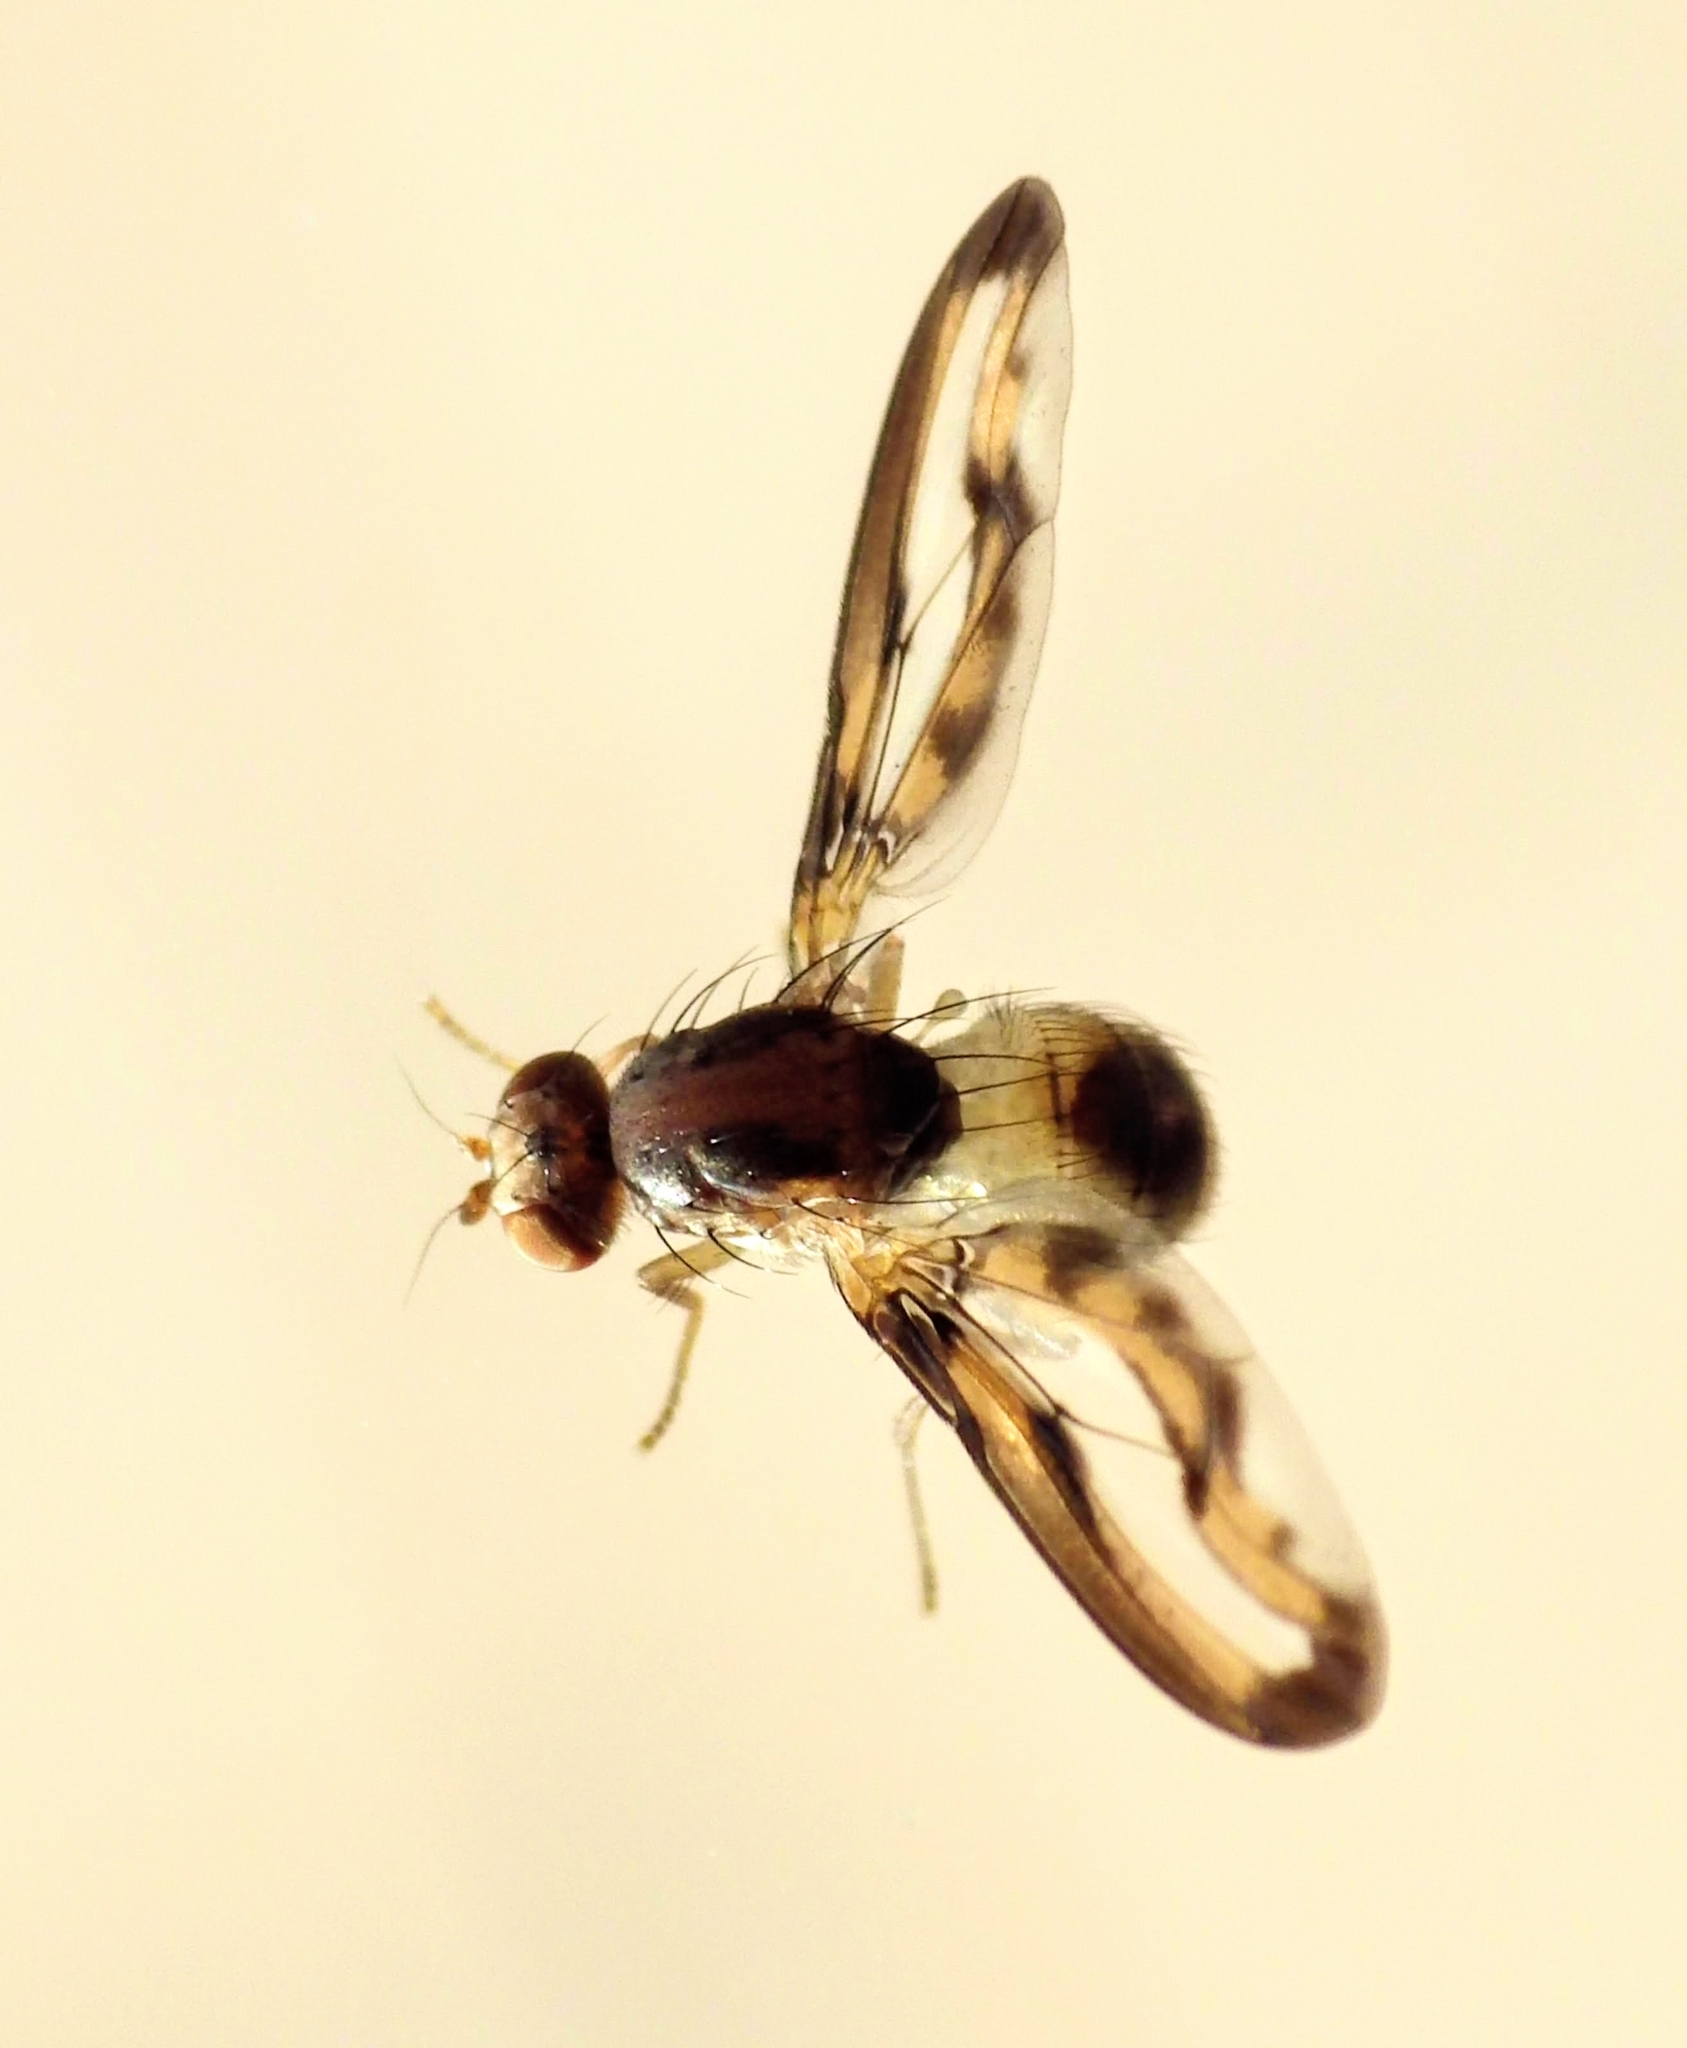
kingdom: Animalia
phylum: Arthropoda
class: Insecta
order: Diptera
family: Pallopteridae
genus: Toxonevra
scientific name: Toxonevra muliebris
